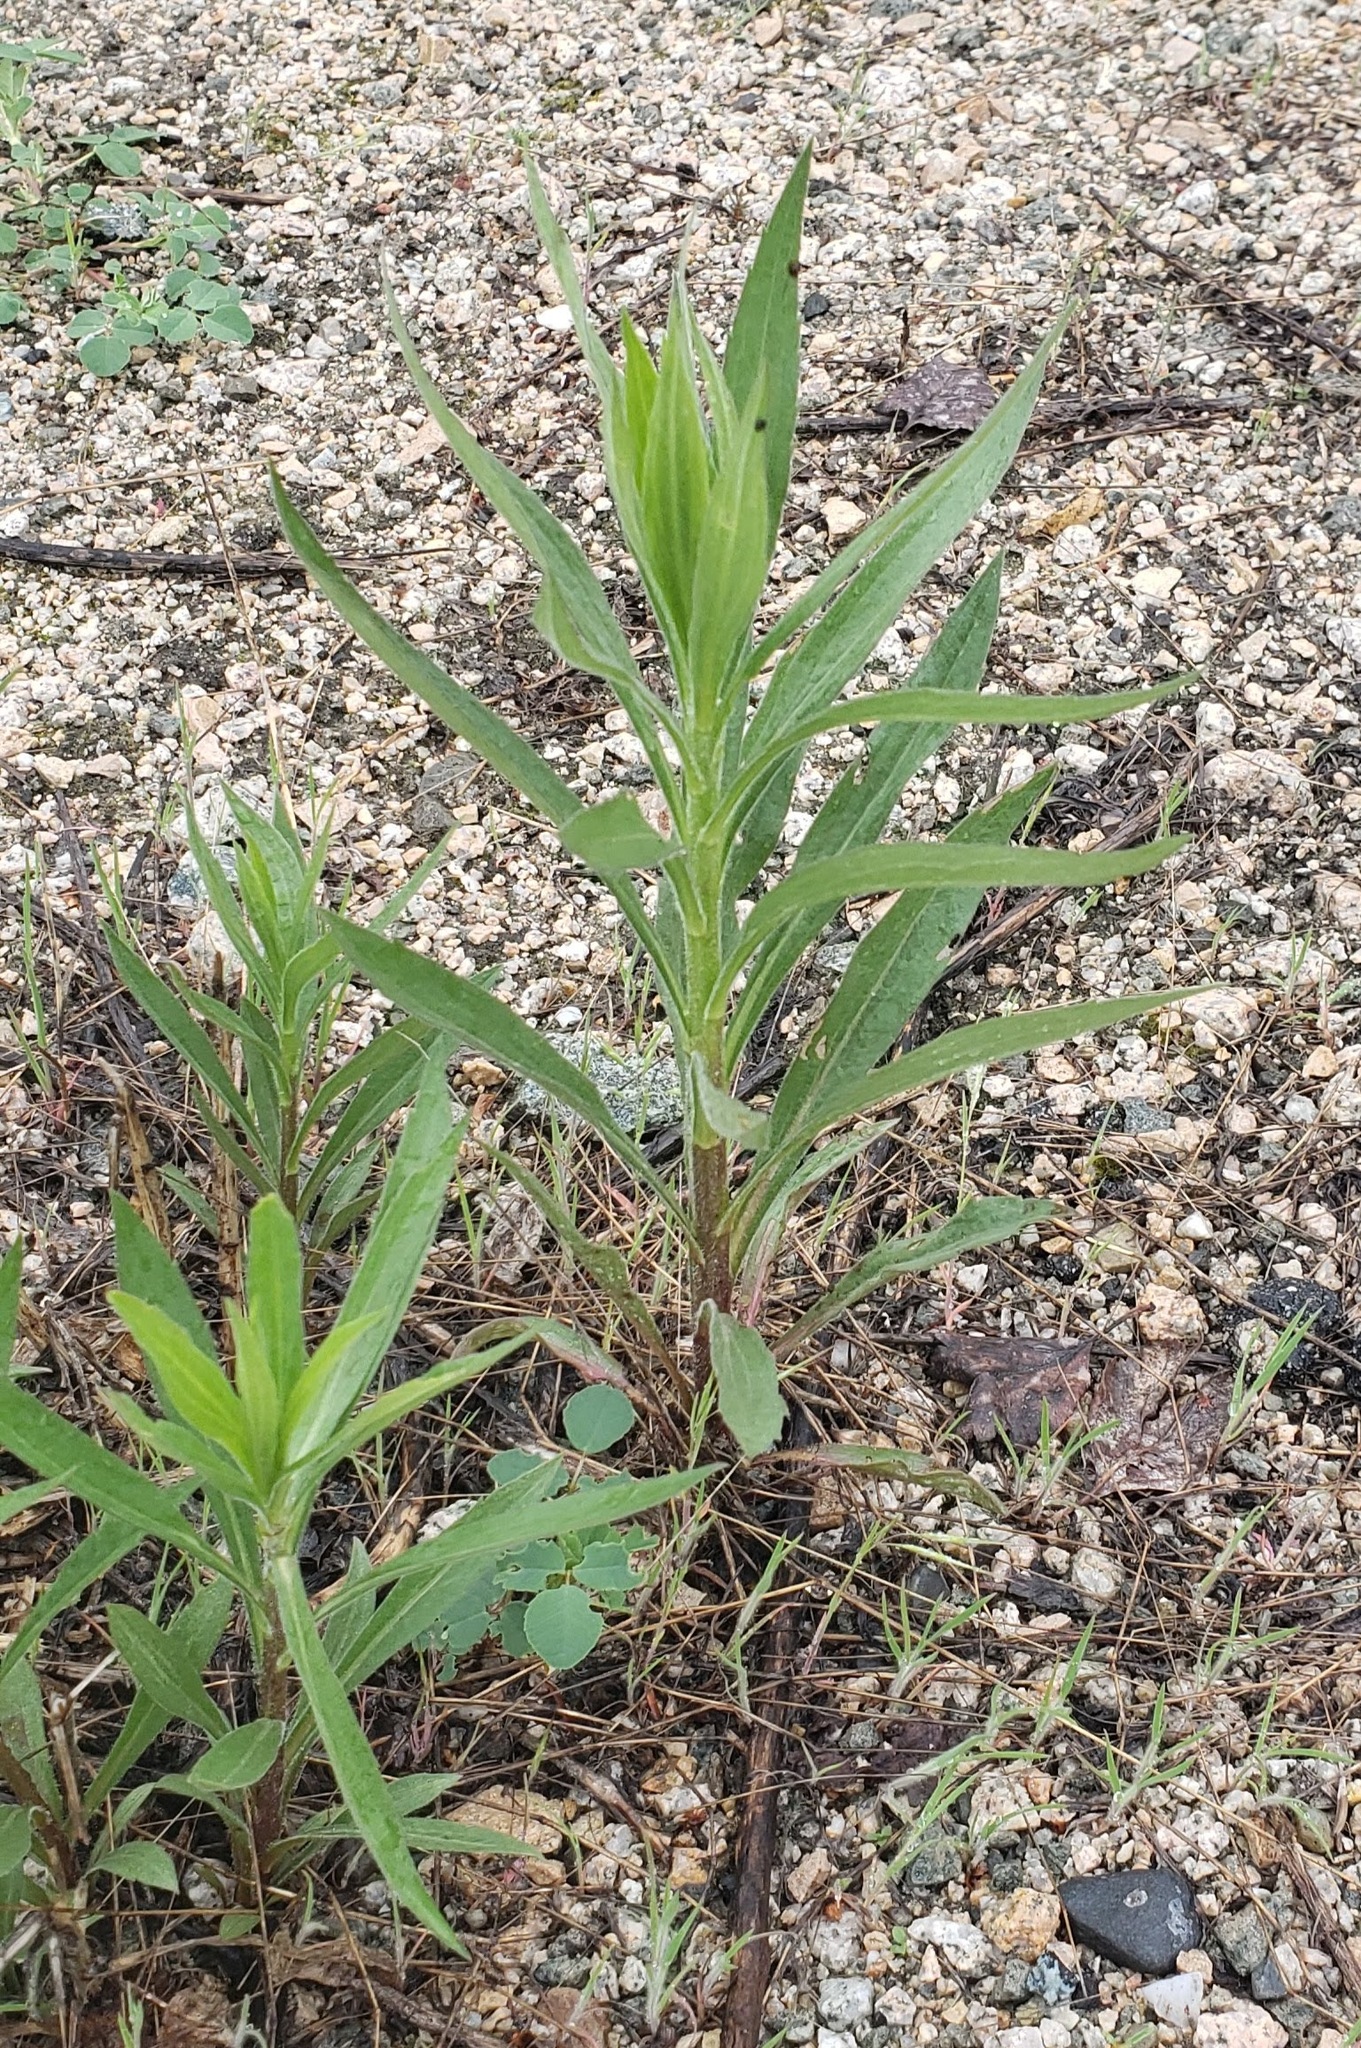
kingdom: Plantae
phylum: Tracheophyta
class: Magnoliopsida
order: Myrtales
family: Onagraceae
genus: Chamaenerion
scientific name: Chamaenerion angustifolium
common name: Fireweed
